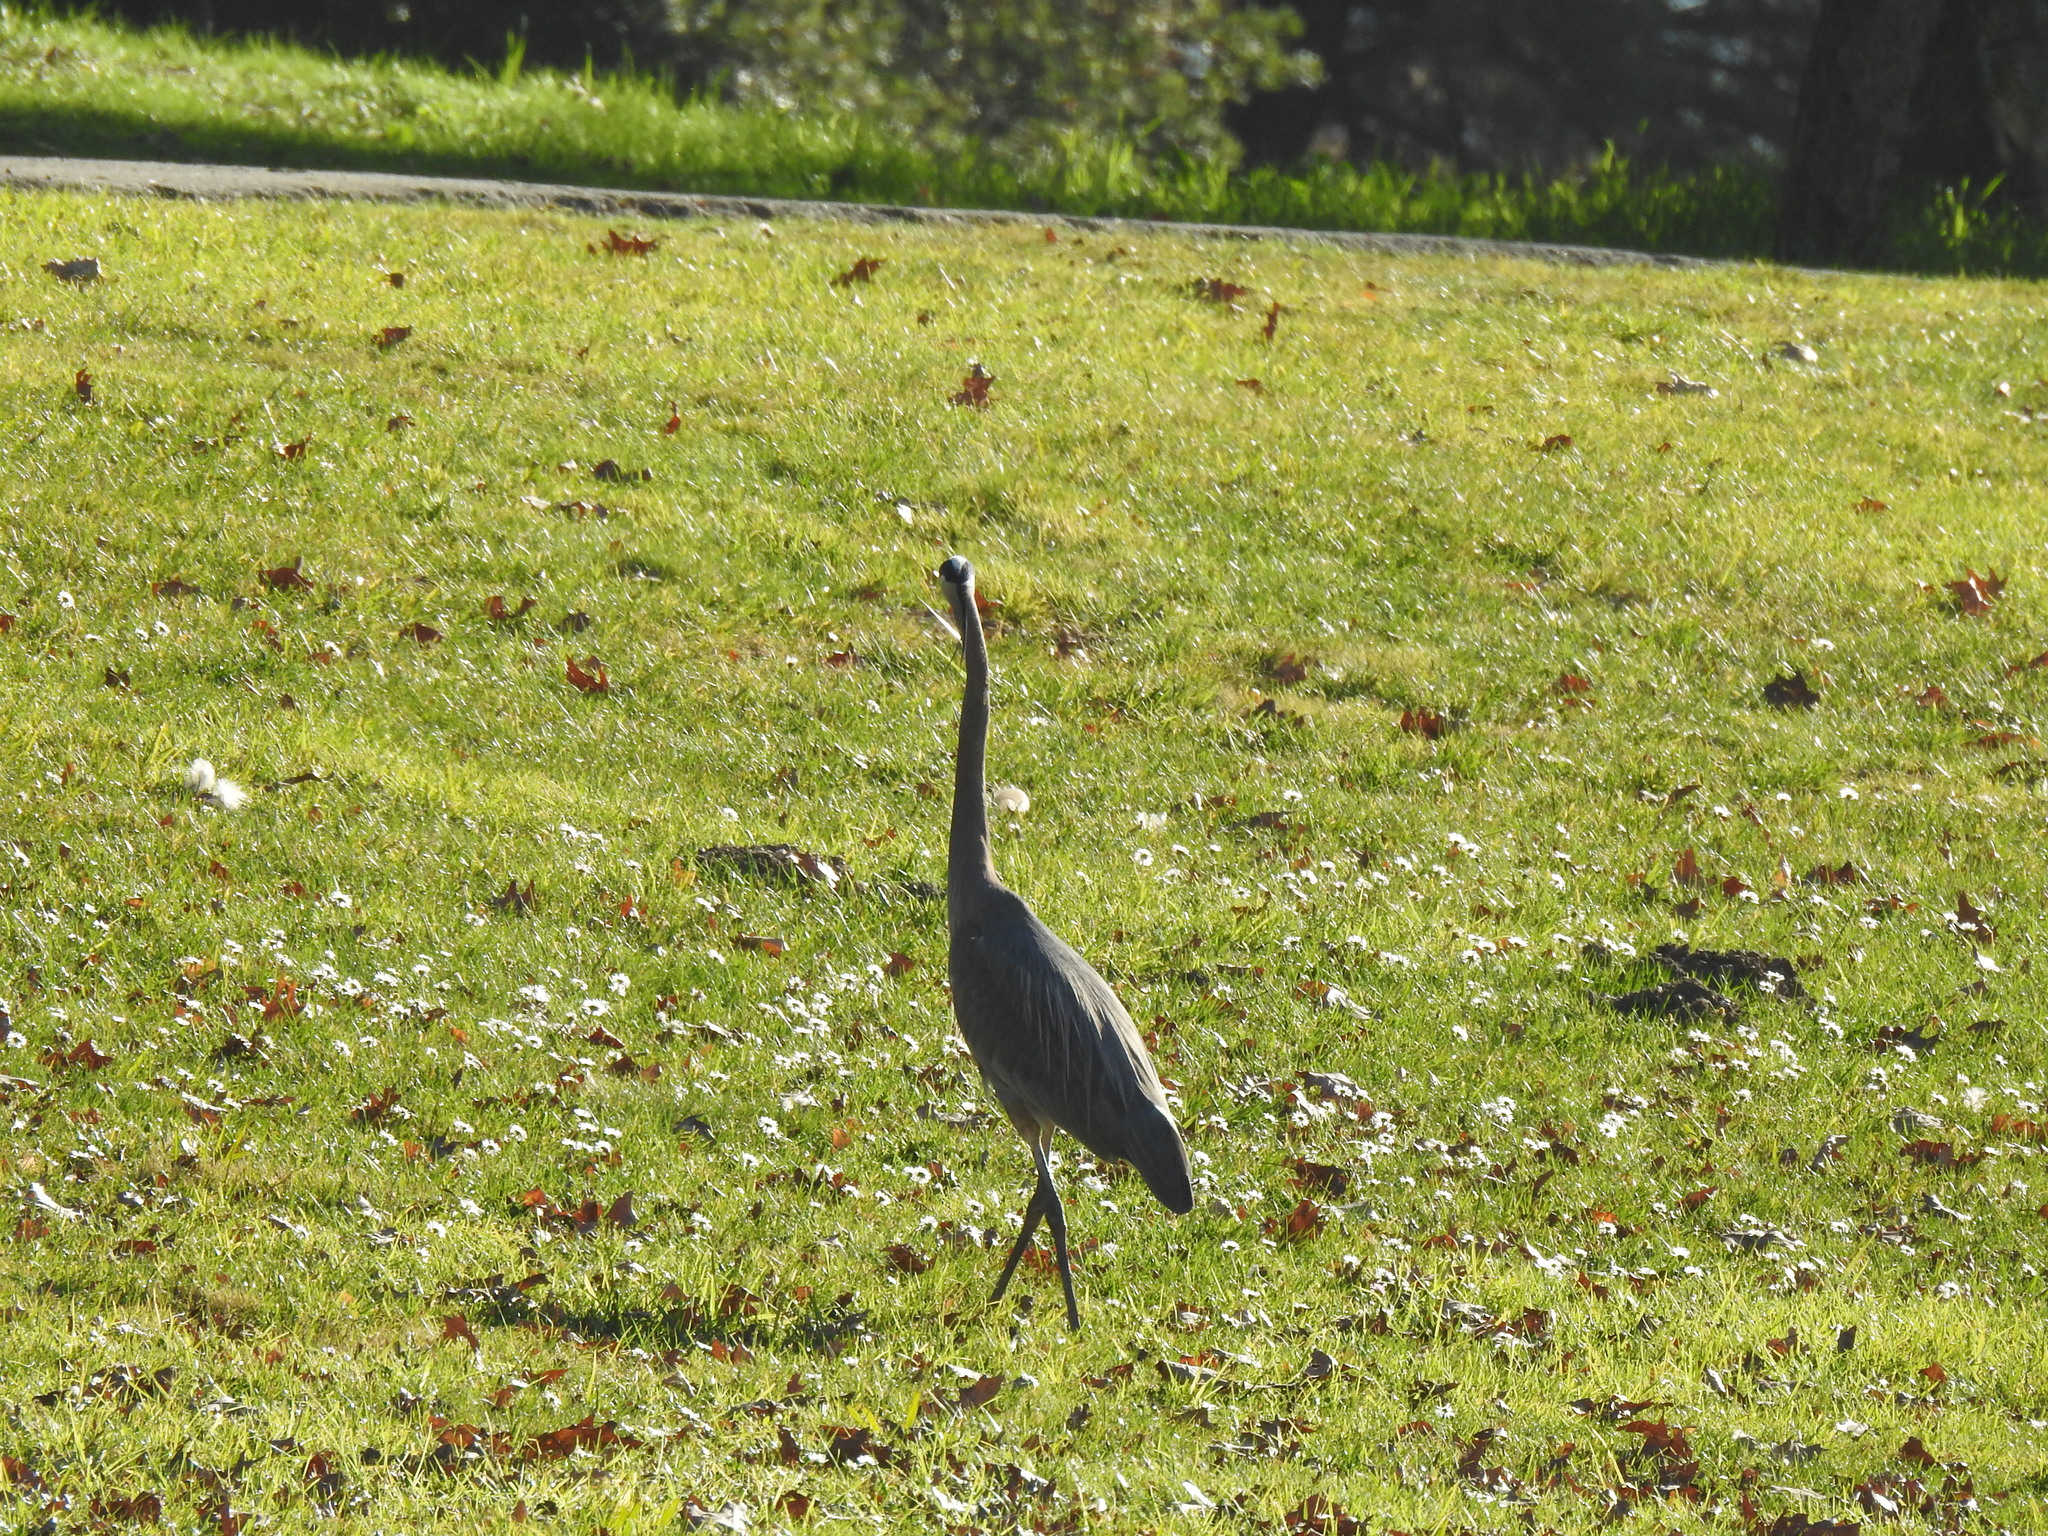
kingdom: Animalia
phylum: Chordata
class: Aves
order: Pelecaniformes
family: Ardeidae
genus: Ardea
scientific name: Ardea herodias
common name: Great blue heron
